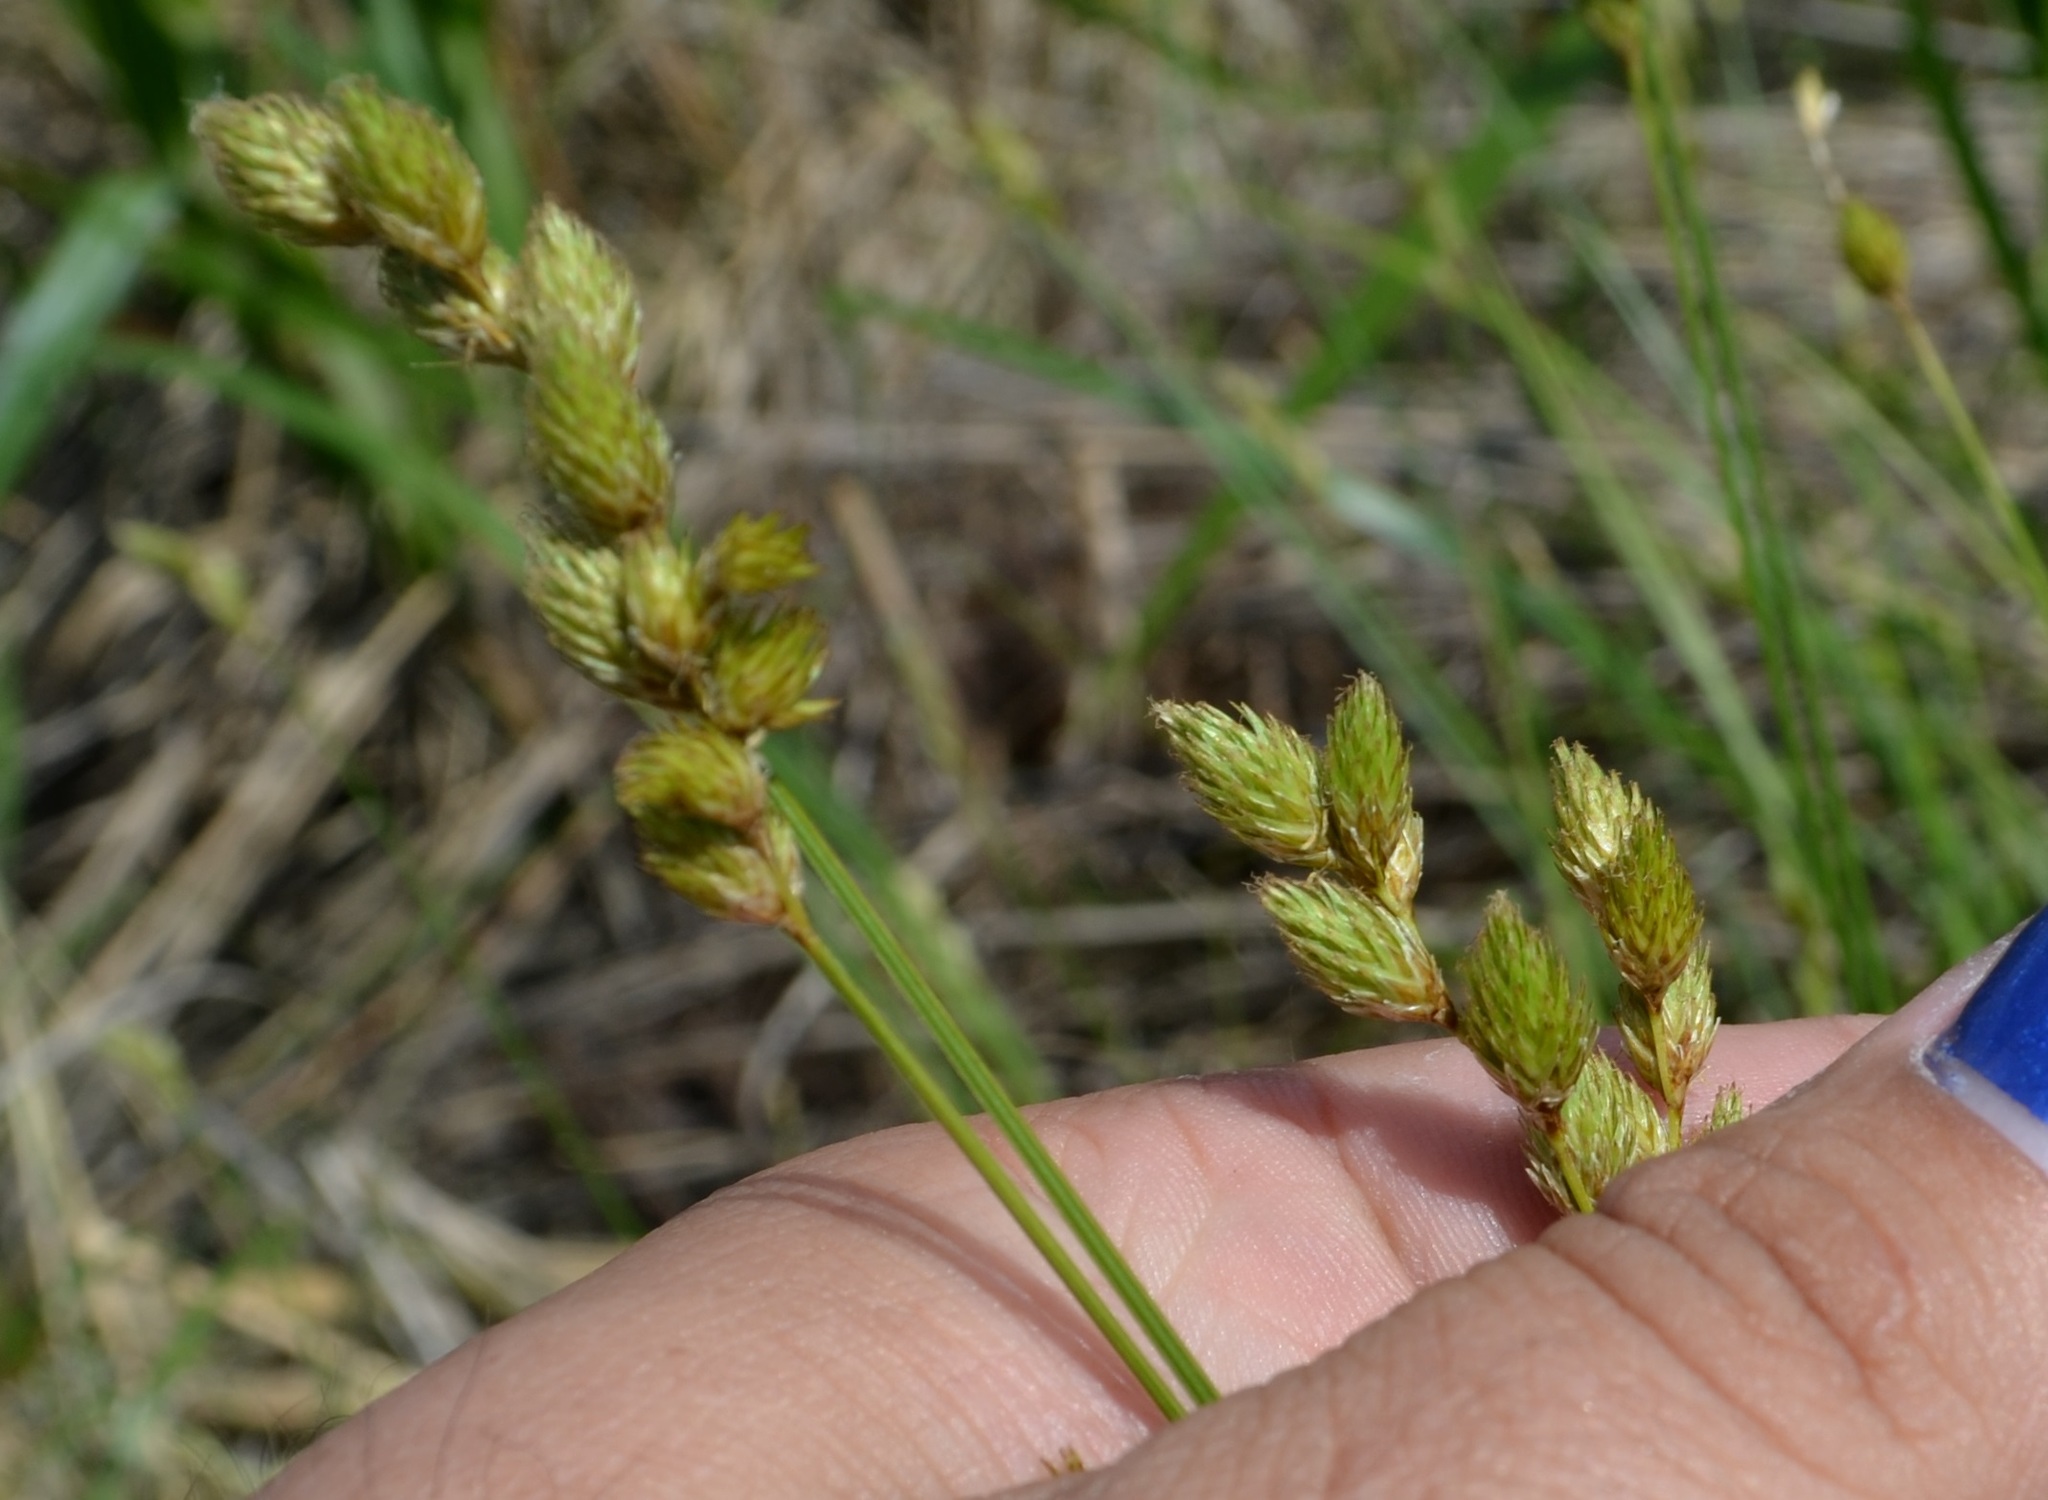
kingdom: Plantae
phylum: Tracheophyta
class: Liliopsida
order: Poales
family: Cyperaceae
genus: Carex
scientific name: Carex scoparia
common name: Broom sedge
